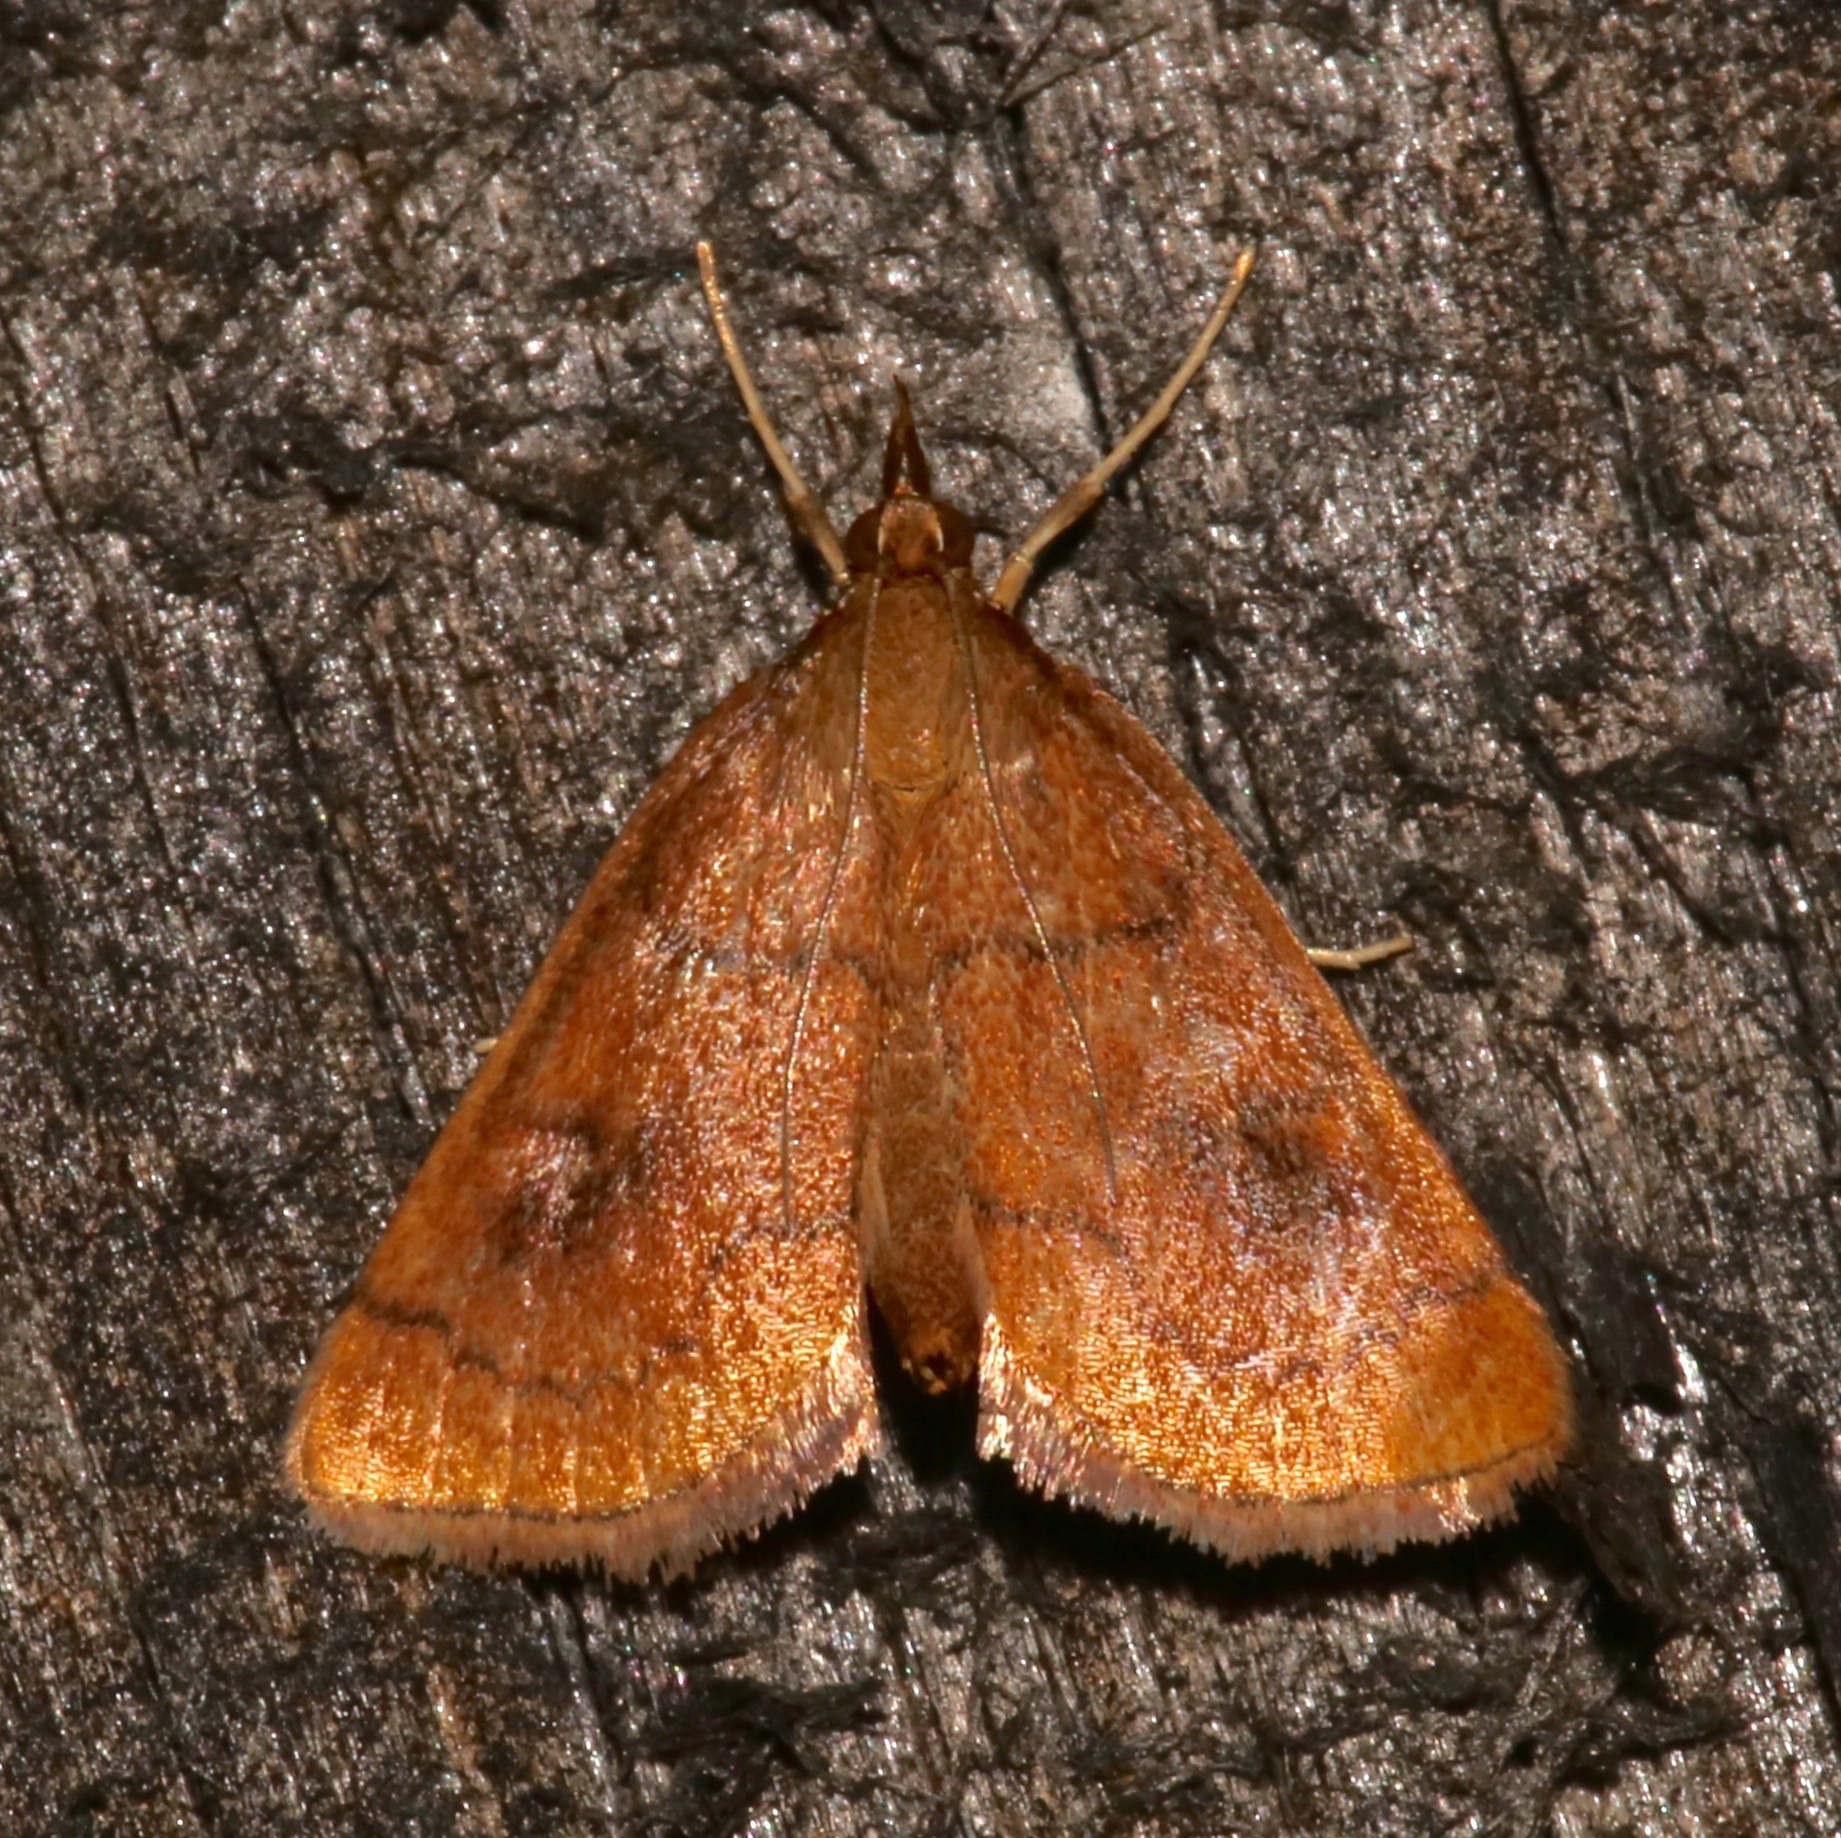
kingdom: Animalia
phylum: Arthropoda
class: Insecta
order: Lepidoptera
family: Crambidae
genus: Fumibotys
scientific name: Fumibotys fumalis
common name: Mint root borer moth
